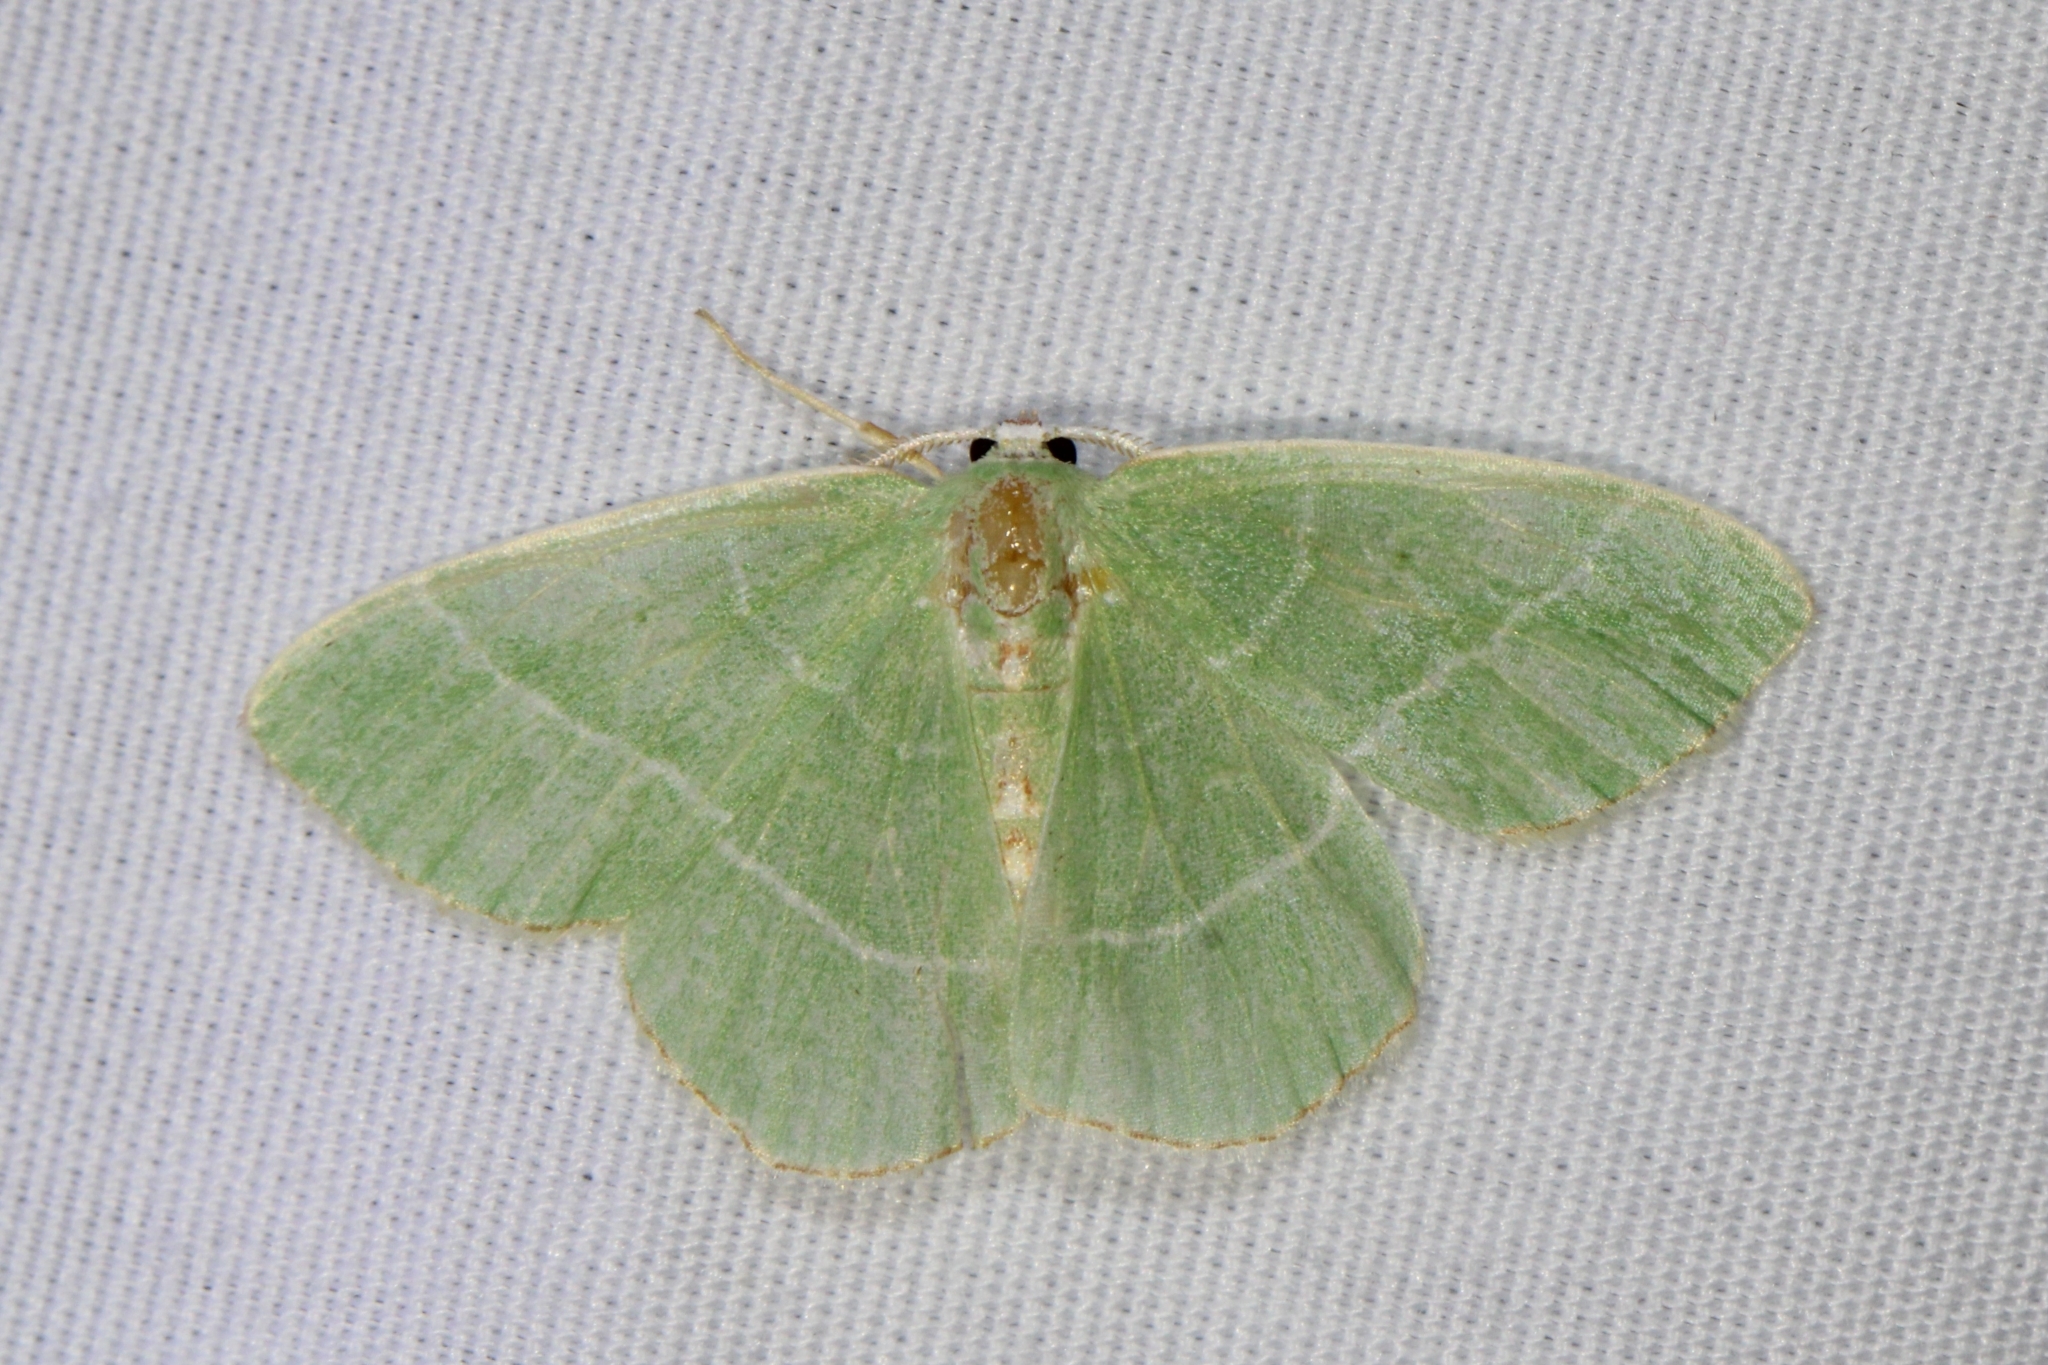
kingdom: Animalia
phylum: Arthropoda
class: Insecta
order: Lepidoptera
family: Geometridae
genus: Nemoria
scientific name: Nemoria bistriaria
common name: Red-fringed emerald
